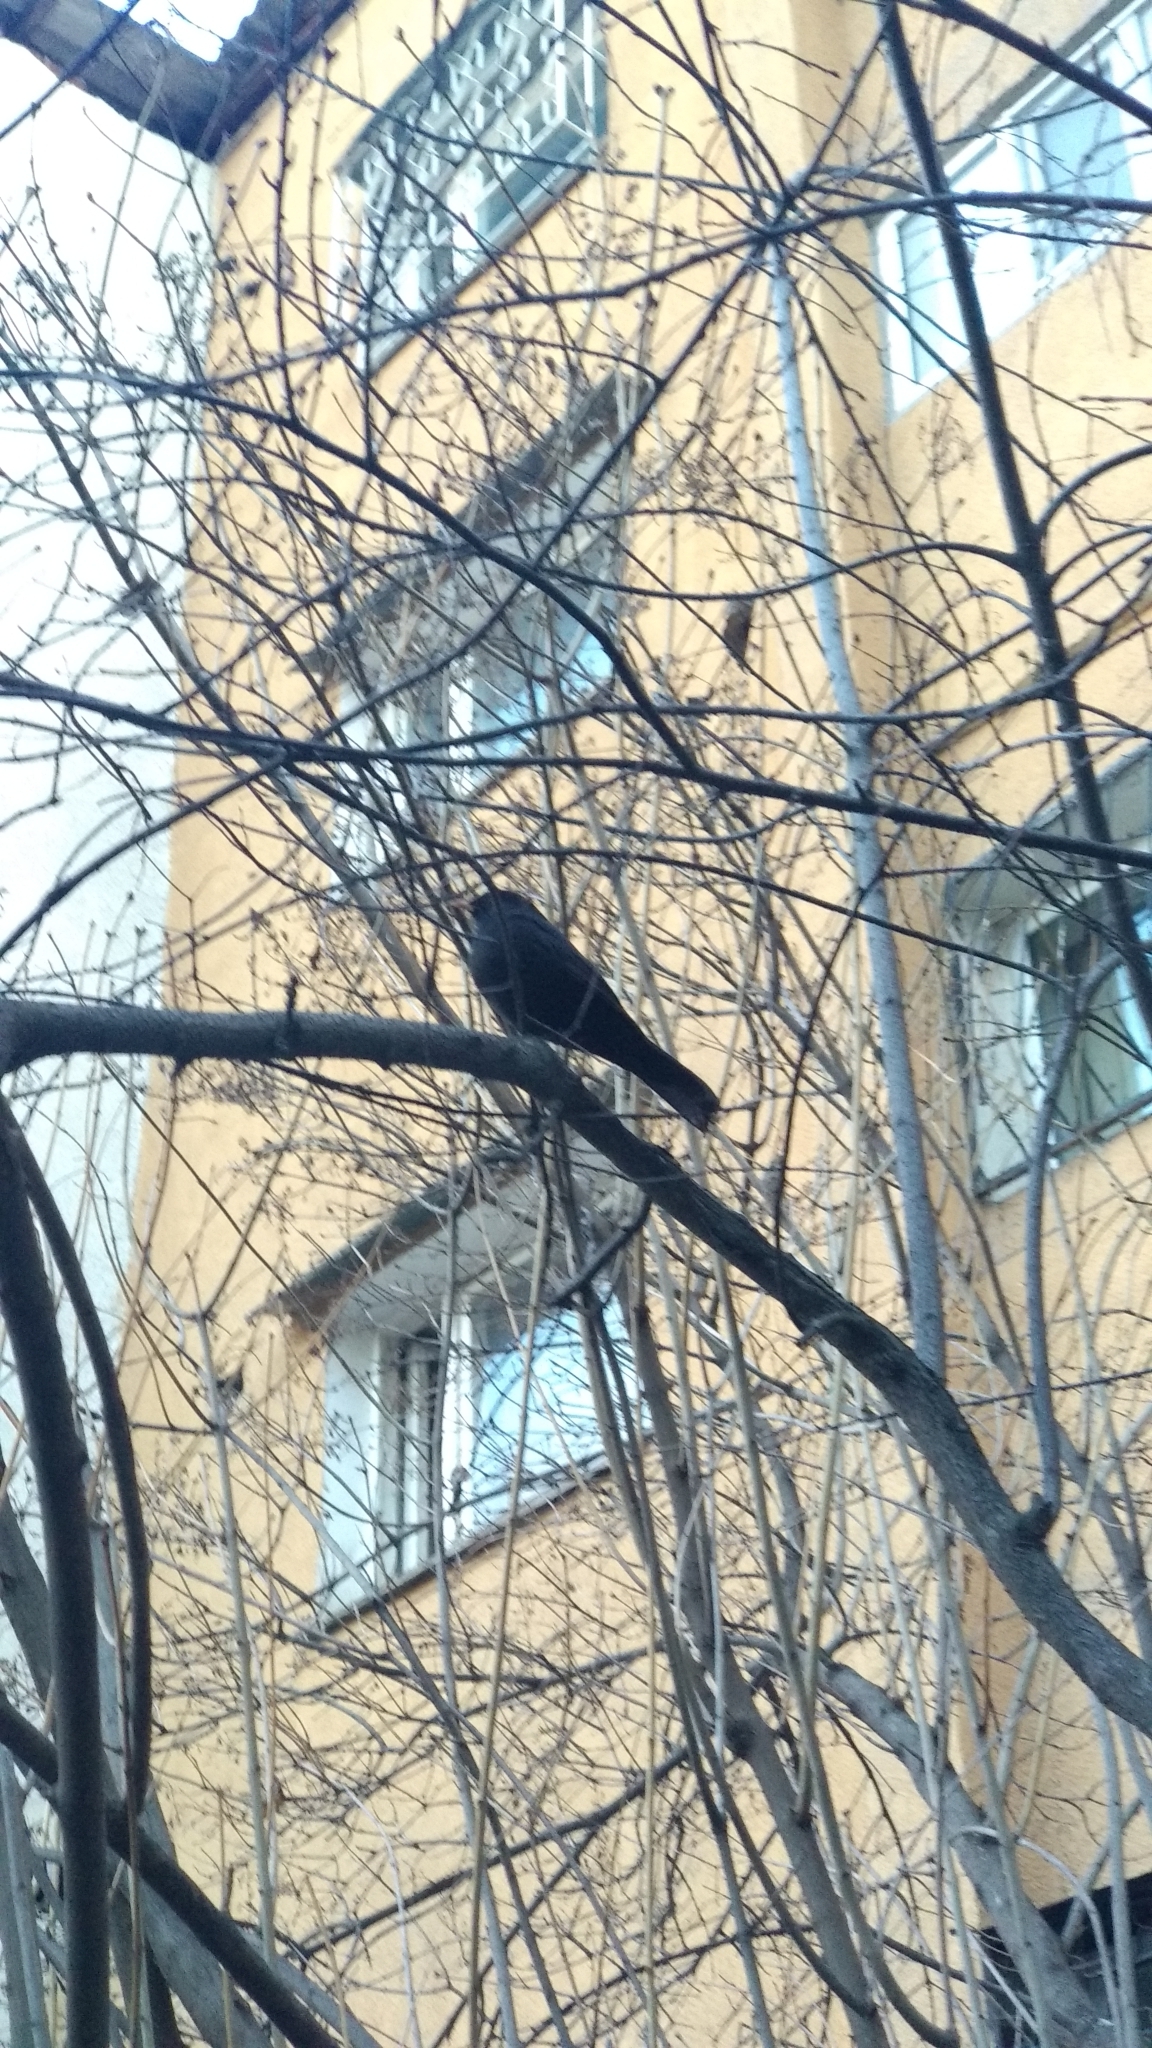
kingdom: Animalia
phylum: Chordata
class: Aves
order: Passeriformes
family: Turdidae
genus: Turdus
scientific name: Turdus merula
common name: Common blackbird
